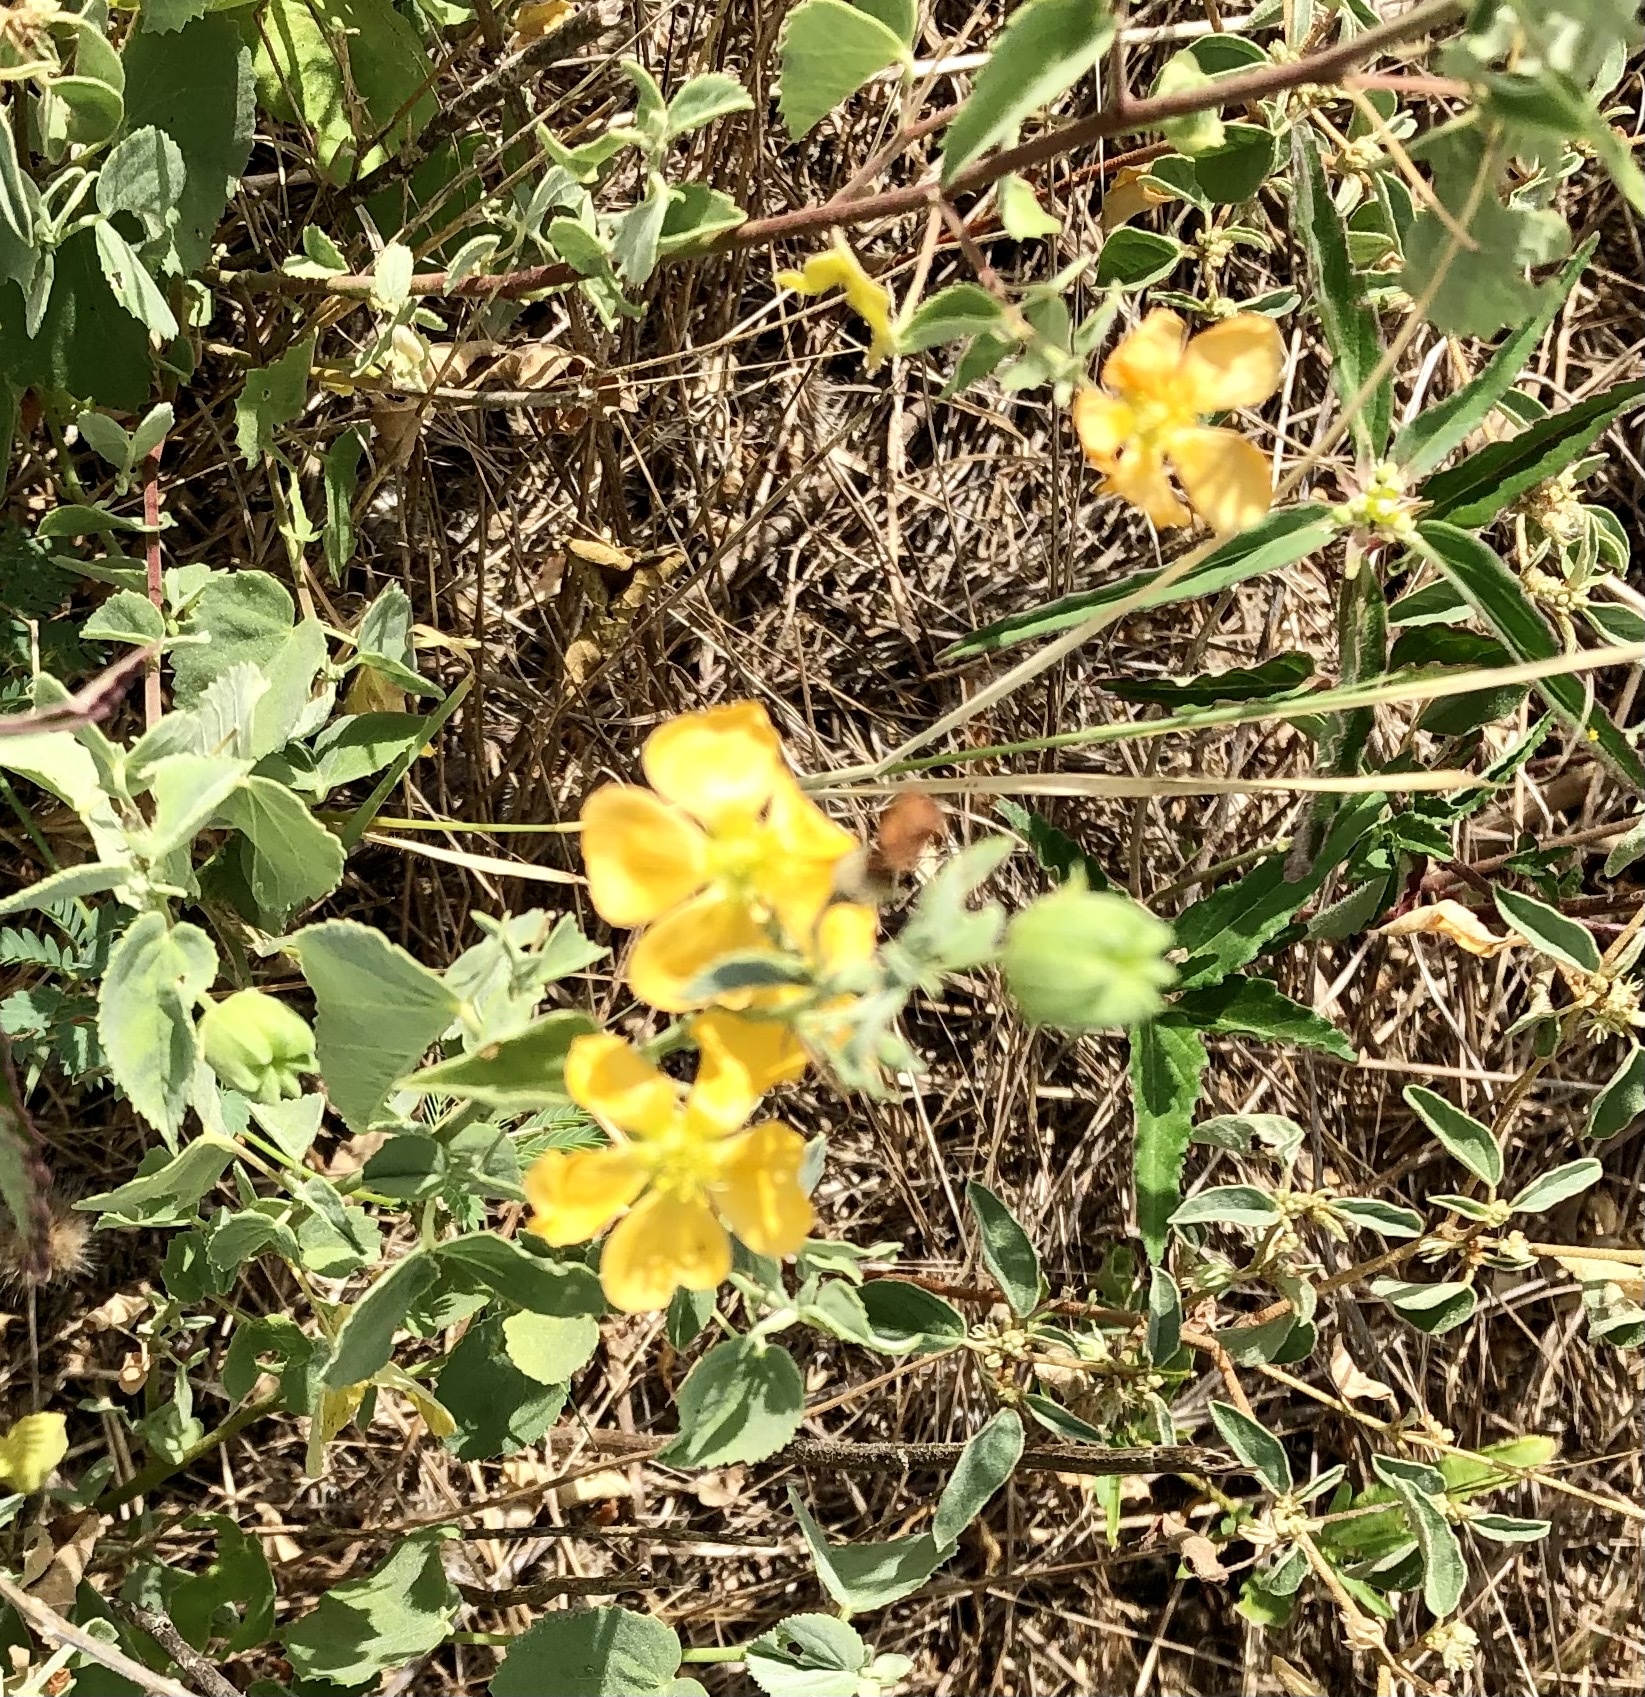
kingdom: Plantae
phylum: Tracheophyta
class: Magnoliopsida
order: Malvales
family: Malvaceae
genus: Abutilon
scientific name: Abutilon fruticosum
